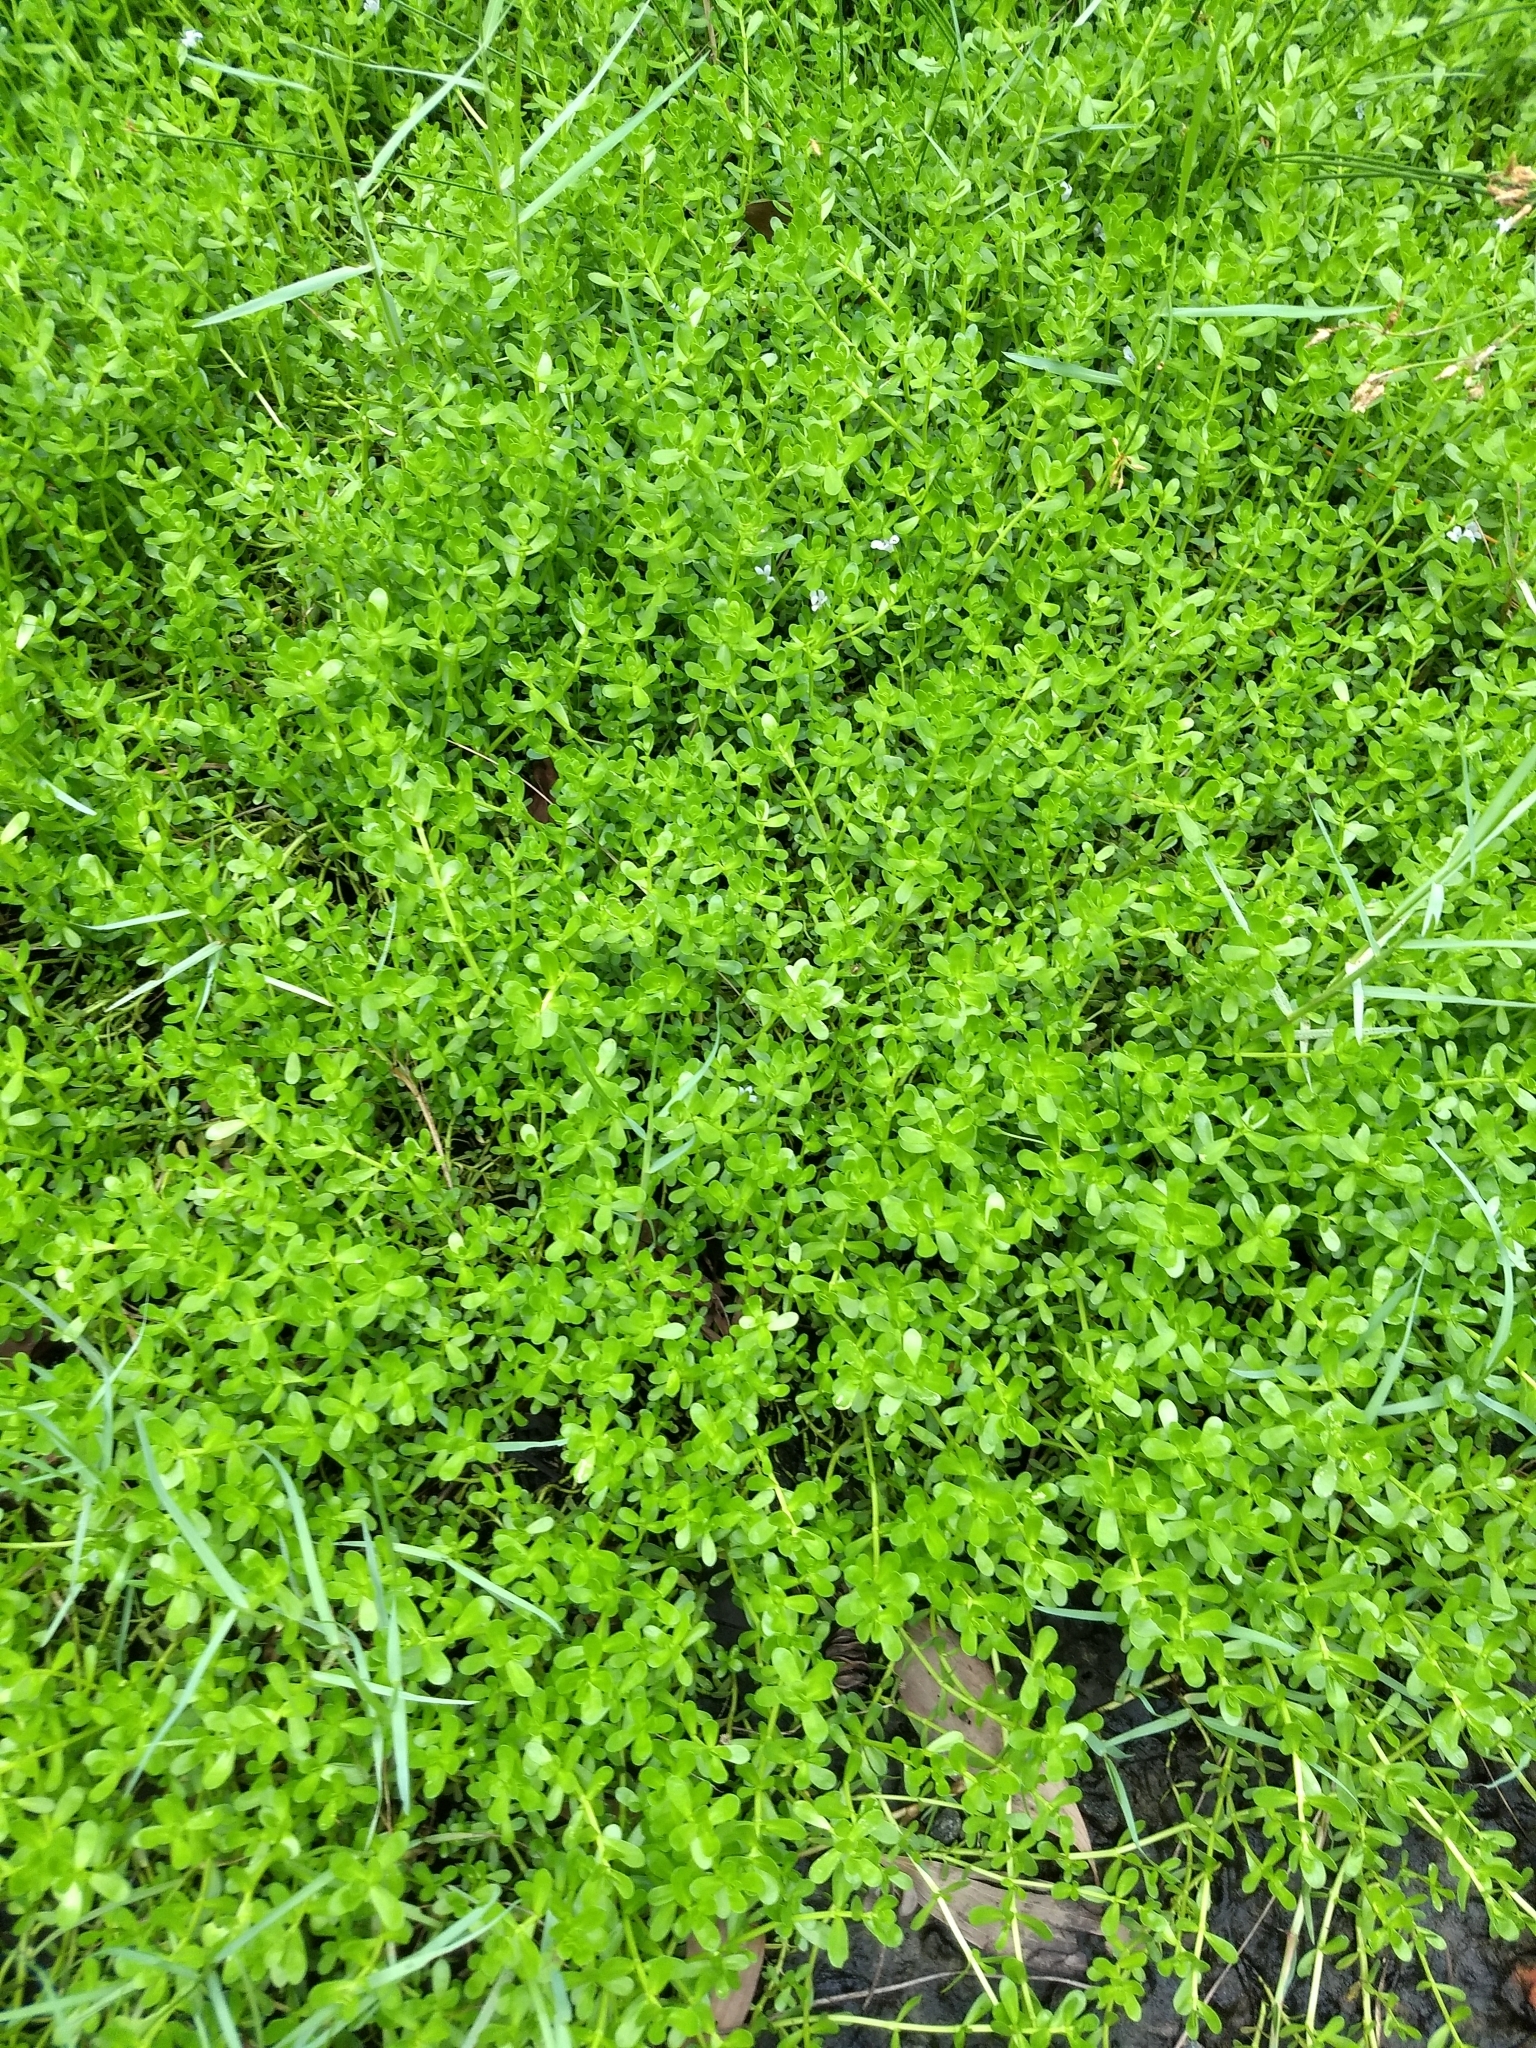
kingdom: Plantae
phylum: Tracheophyta
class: Magnoliopsida
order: Lamiales
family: Plantaginaceae
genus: Bacopa
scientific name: Bacopa monnieri
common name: Indian-pennywort
